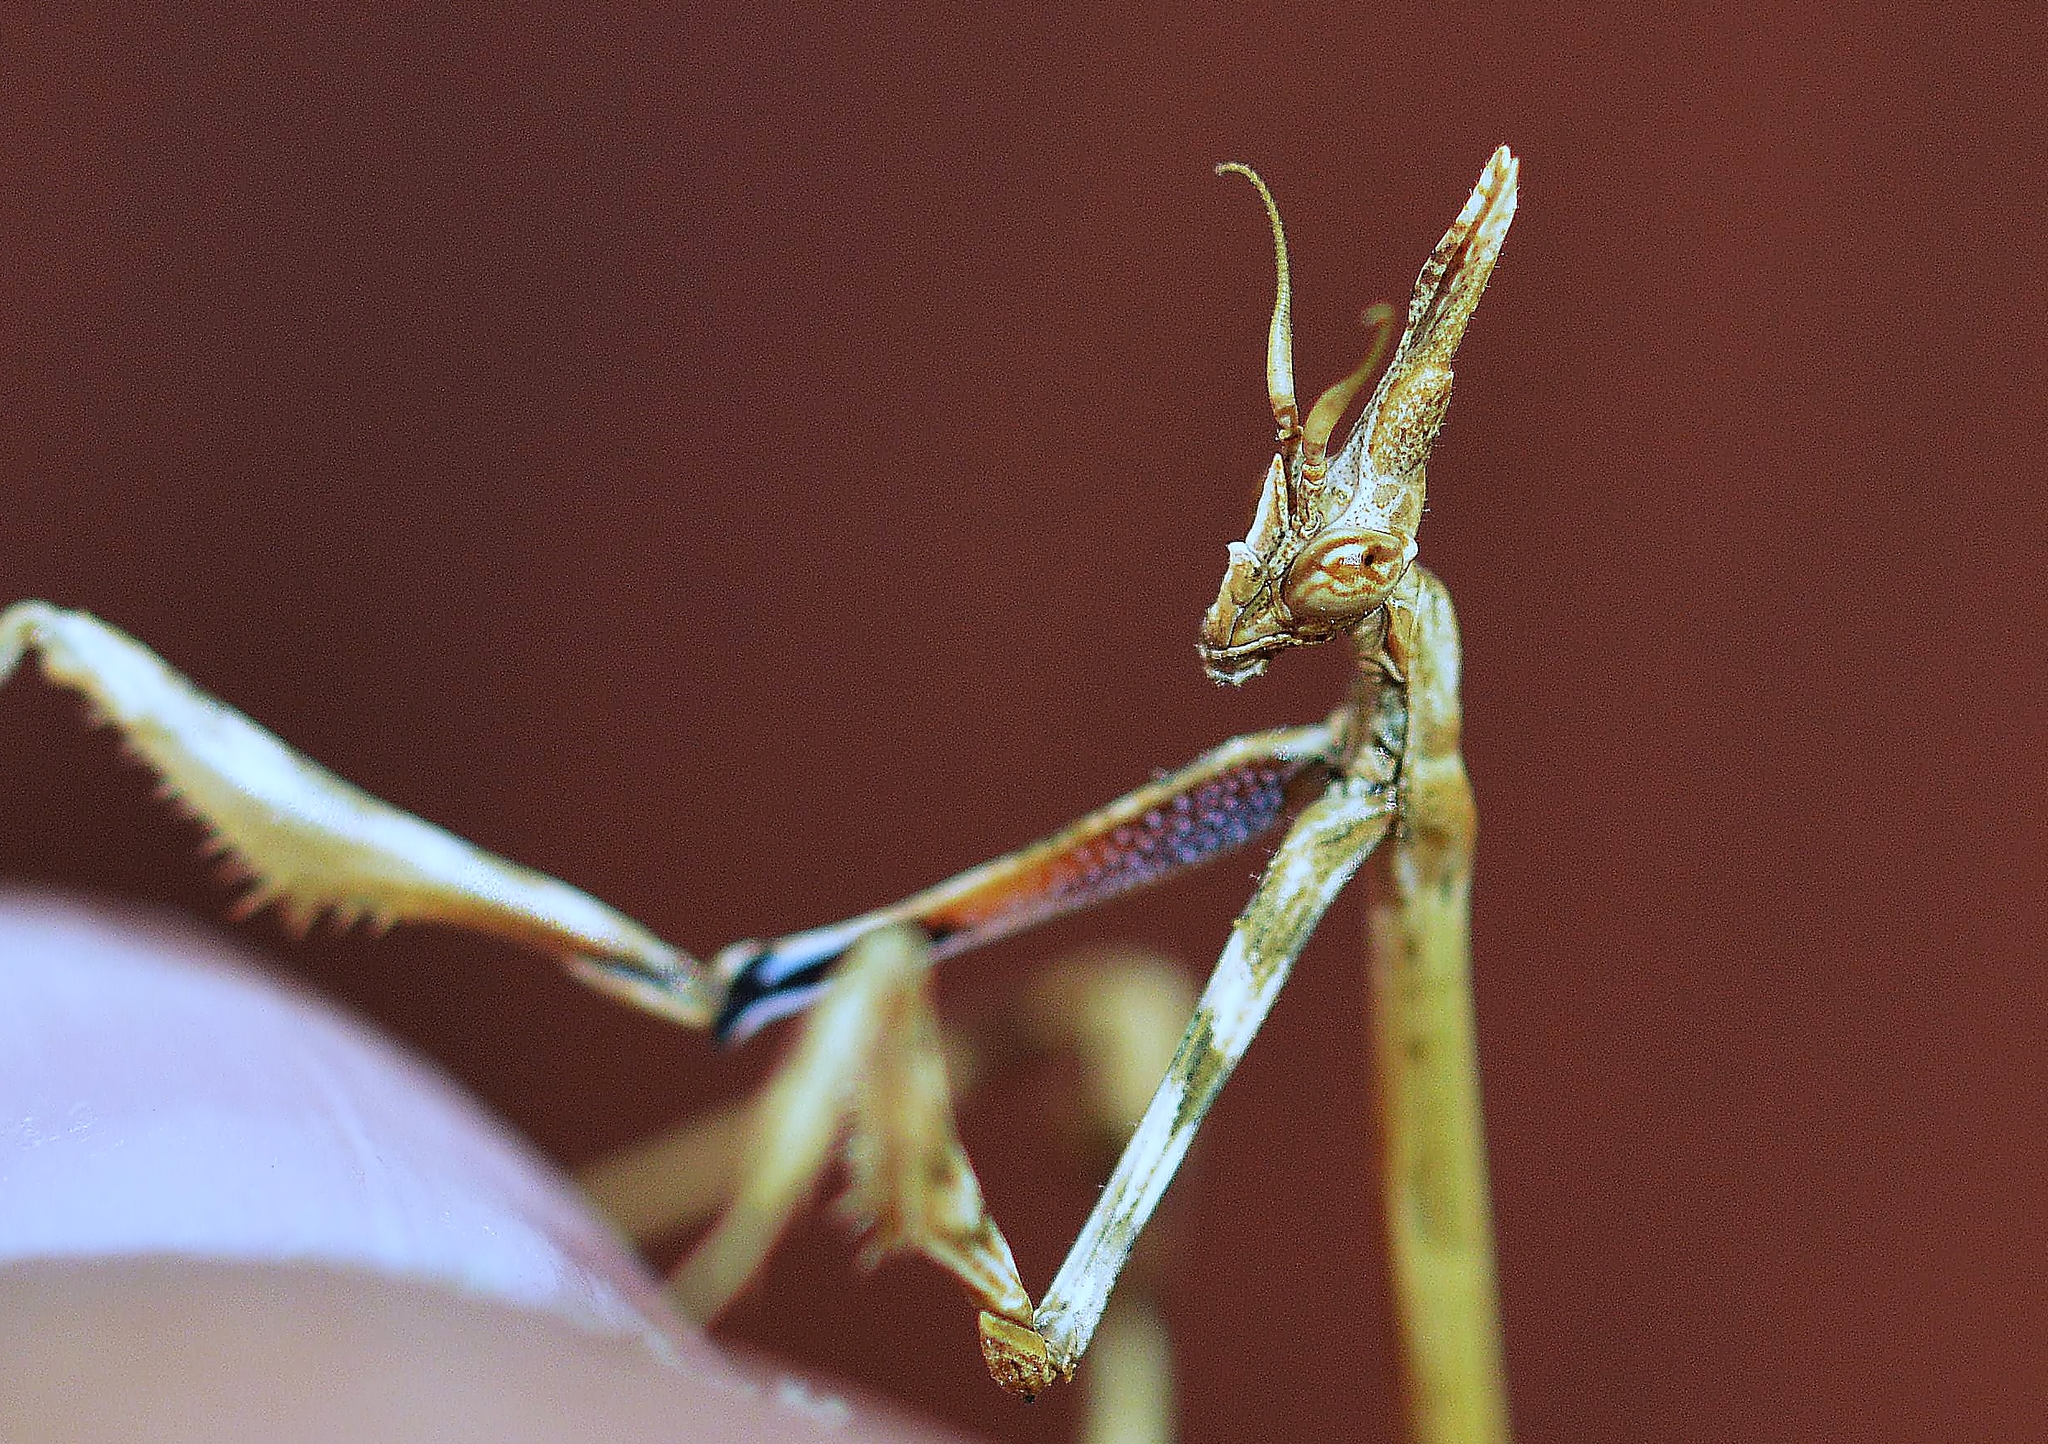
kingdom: Animalia
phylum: Arthropoda
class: Insecta
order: Mantodea
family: Empusidae
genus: Empusa
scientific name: Empusa pennata
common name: Conehead mantis
